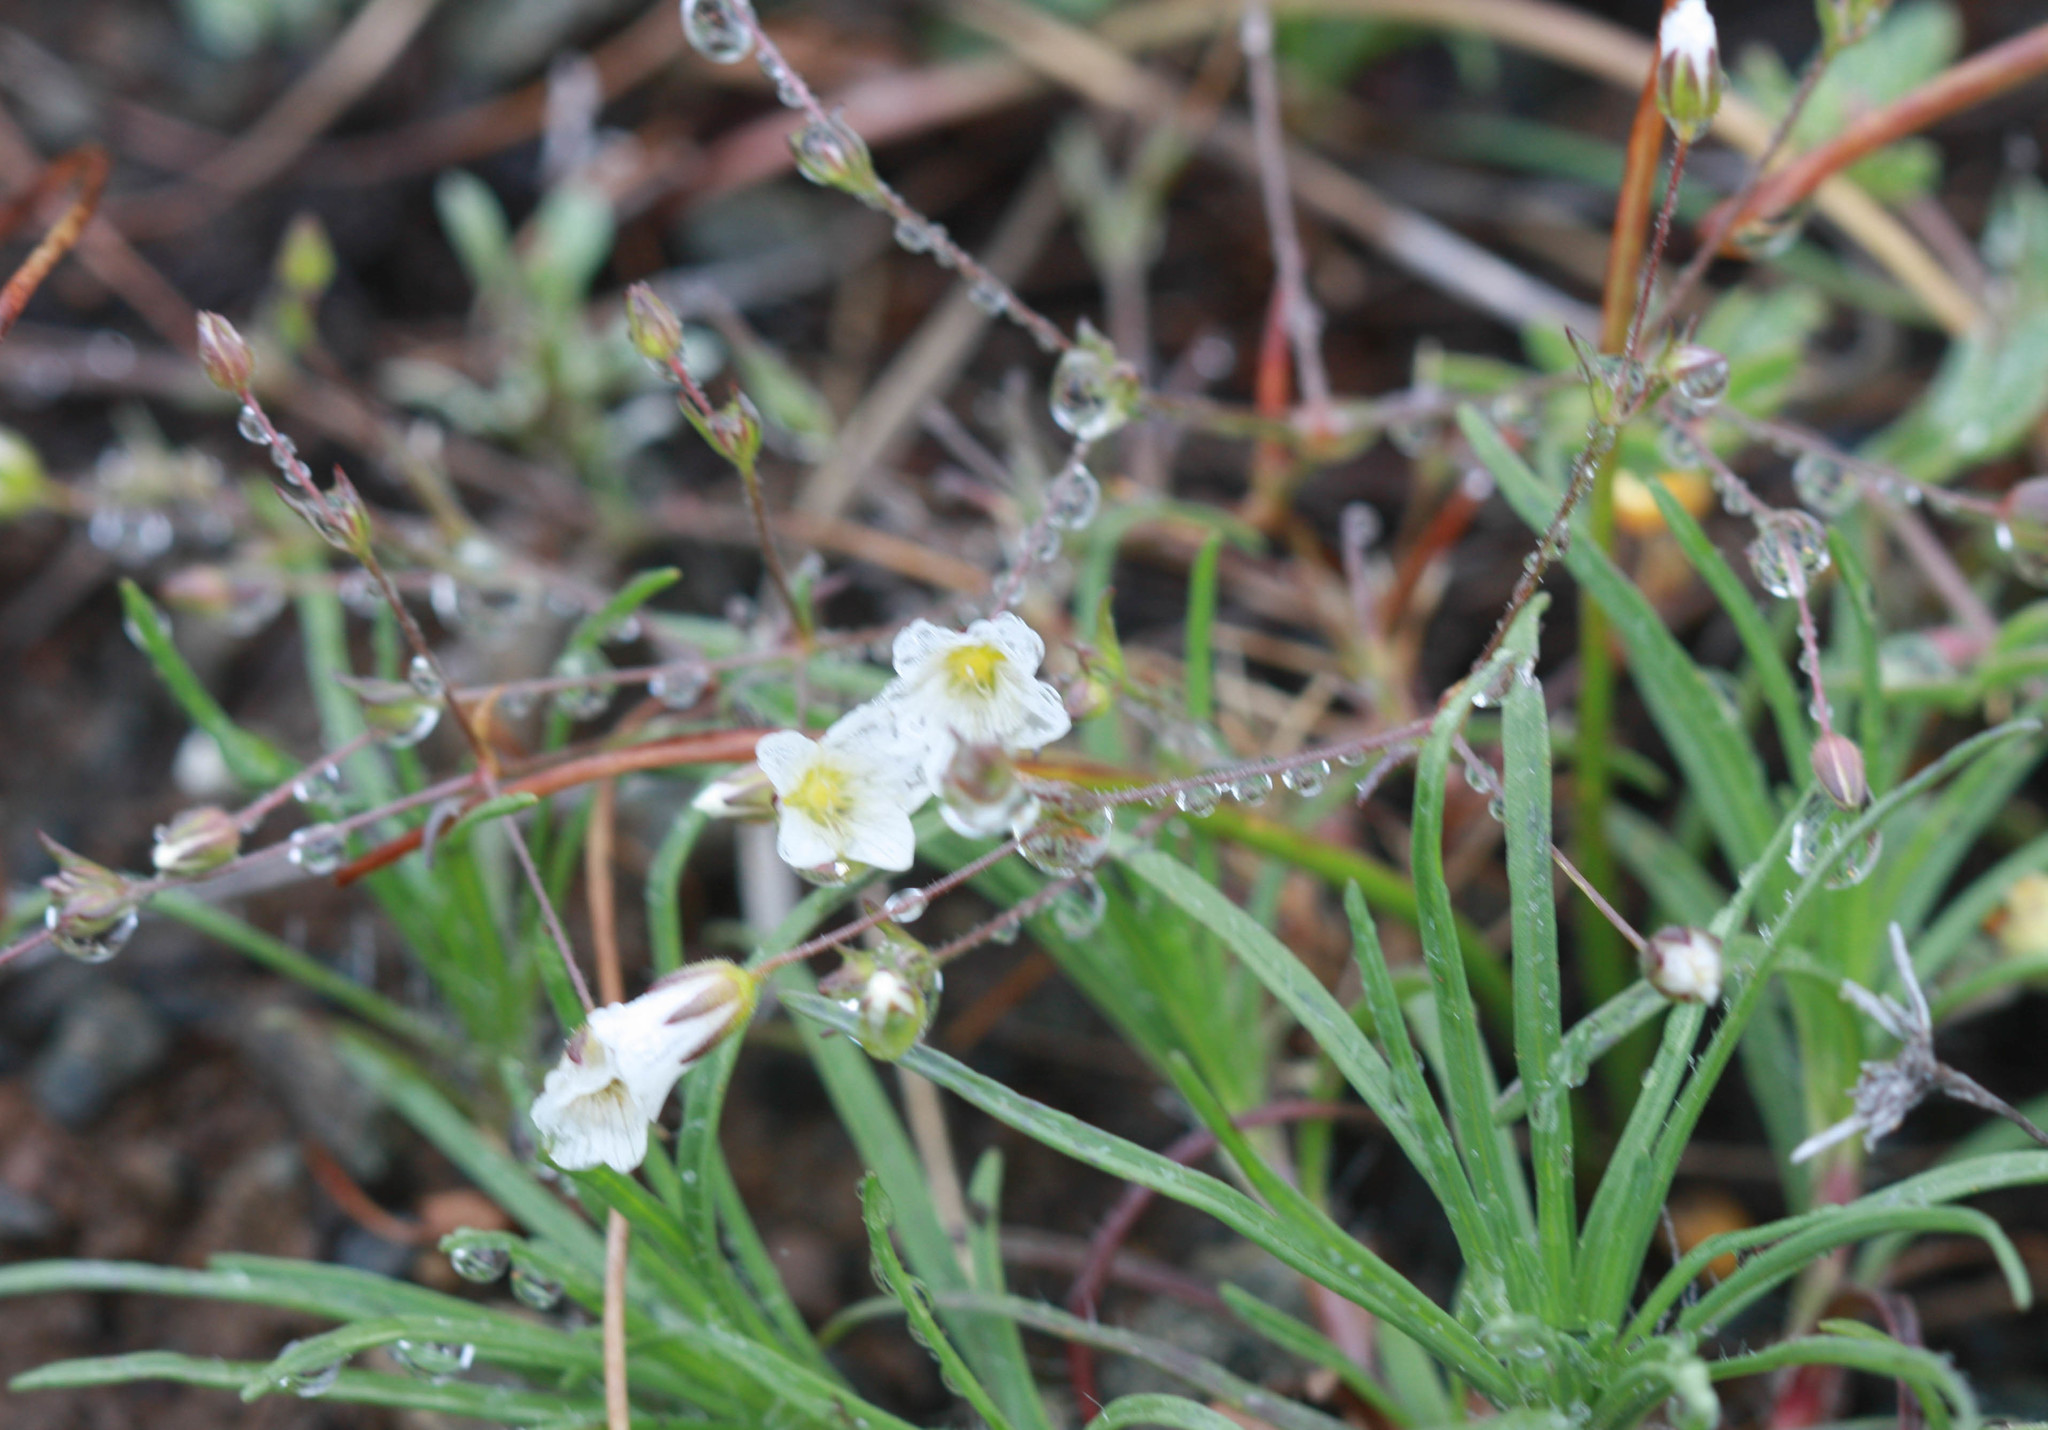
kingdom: Plantae
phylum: Tracheophyta
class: Magnoliopsida
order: Caryophyllales
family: Caryophyllaceae
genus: Sabulina
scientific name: Sabulina douglasii
